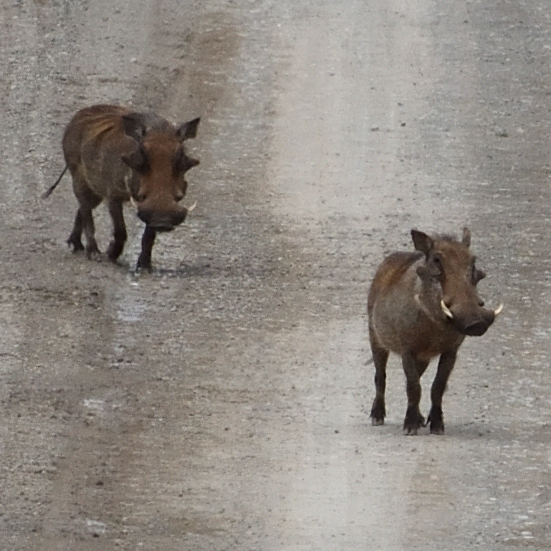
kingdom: Animalia
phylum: Chordata
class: Mammalia
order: Artiodactyla
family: Suidae
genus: Phacochoerus
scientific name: Phacochoerus africanus
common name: Common warthog
